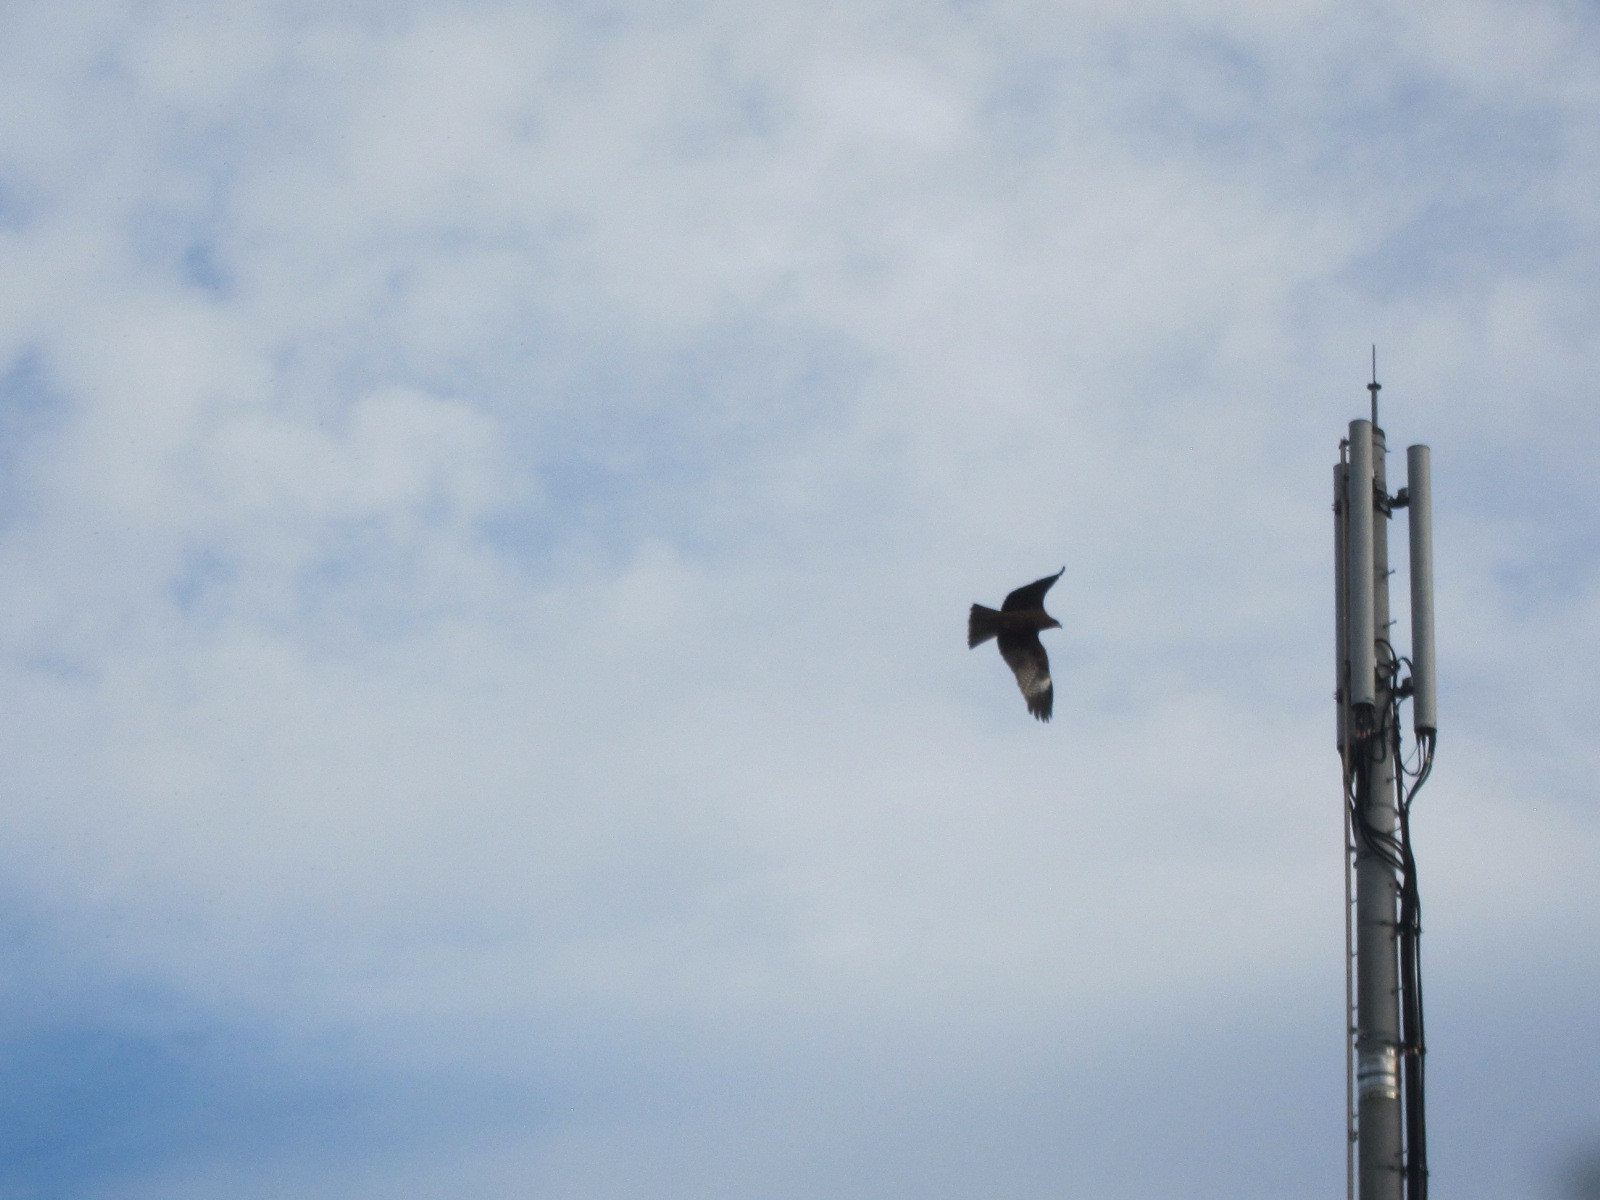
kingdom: Animalia
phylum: Chordata
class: Aves
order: Accipitriformes
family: Accipitridae
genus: Milvus
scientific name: Milvus migrans
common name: Black kite
